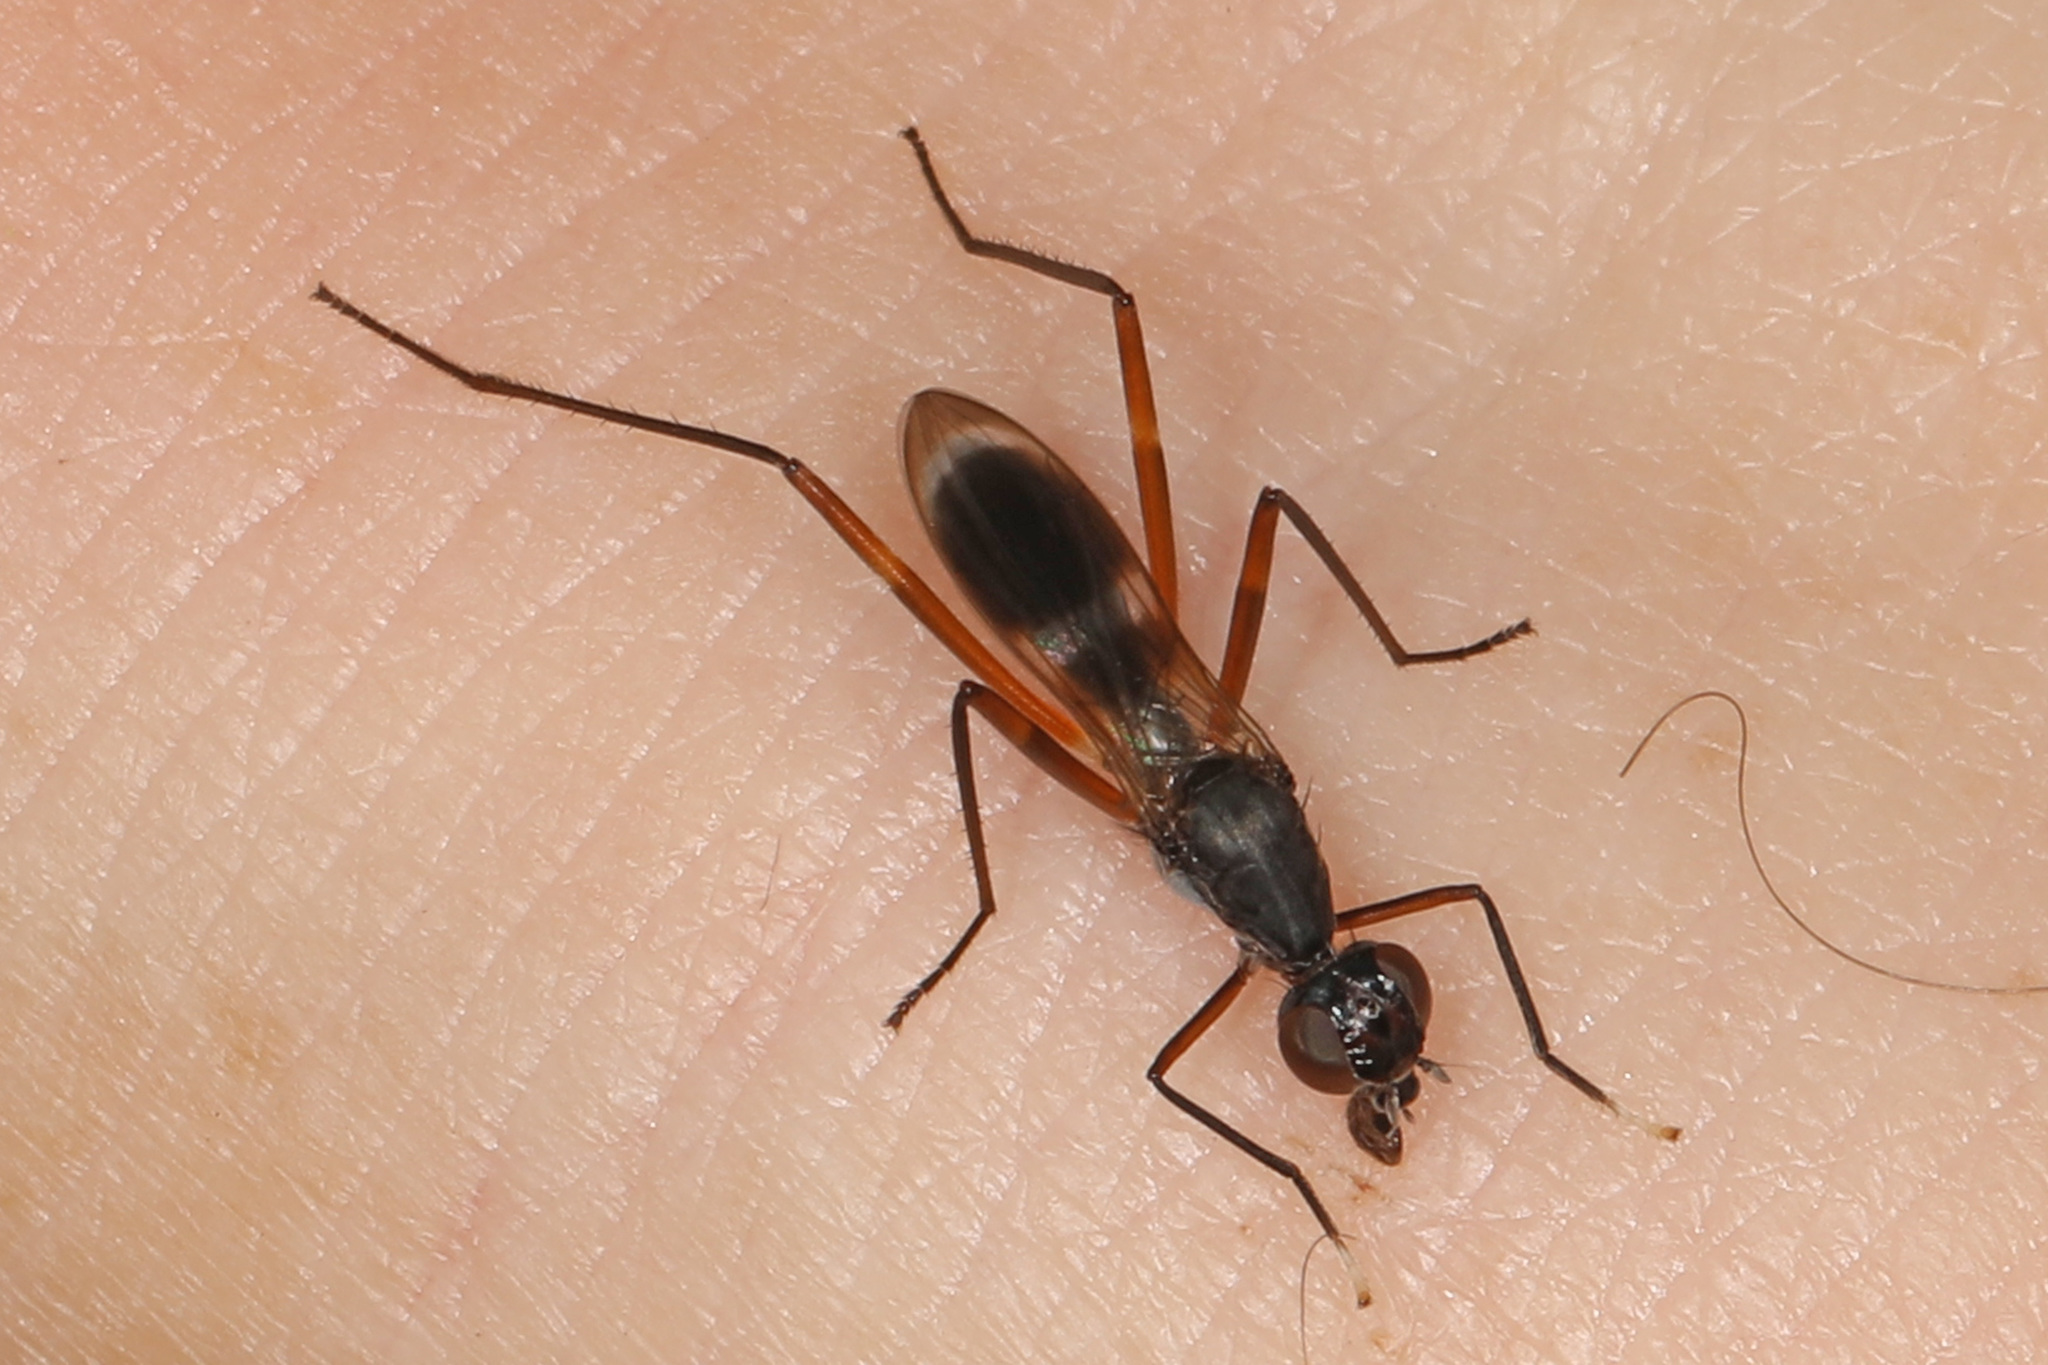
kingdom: Animalia
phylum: Arthropoda
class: Insecta
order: Diptera
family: Micropezidae
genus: Taeniaptera
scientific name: Taeniaptera trivittata
